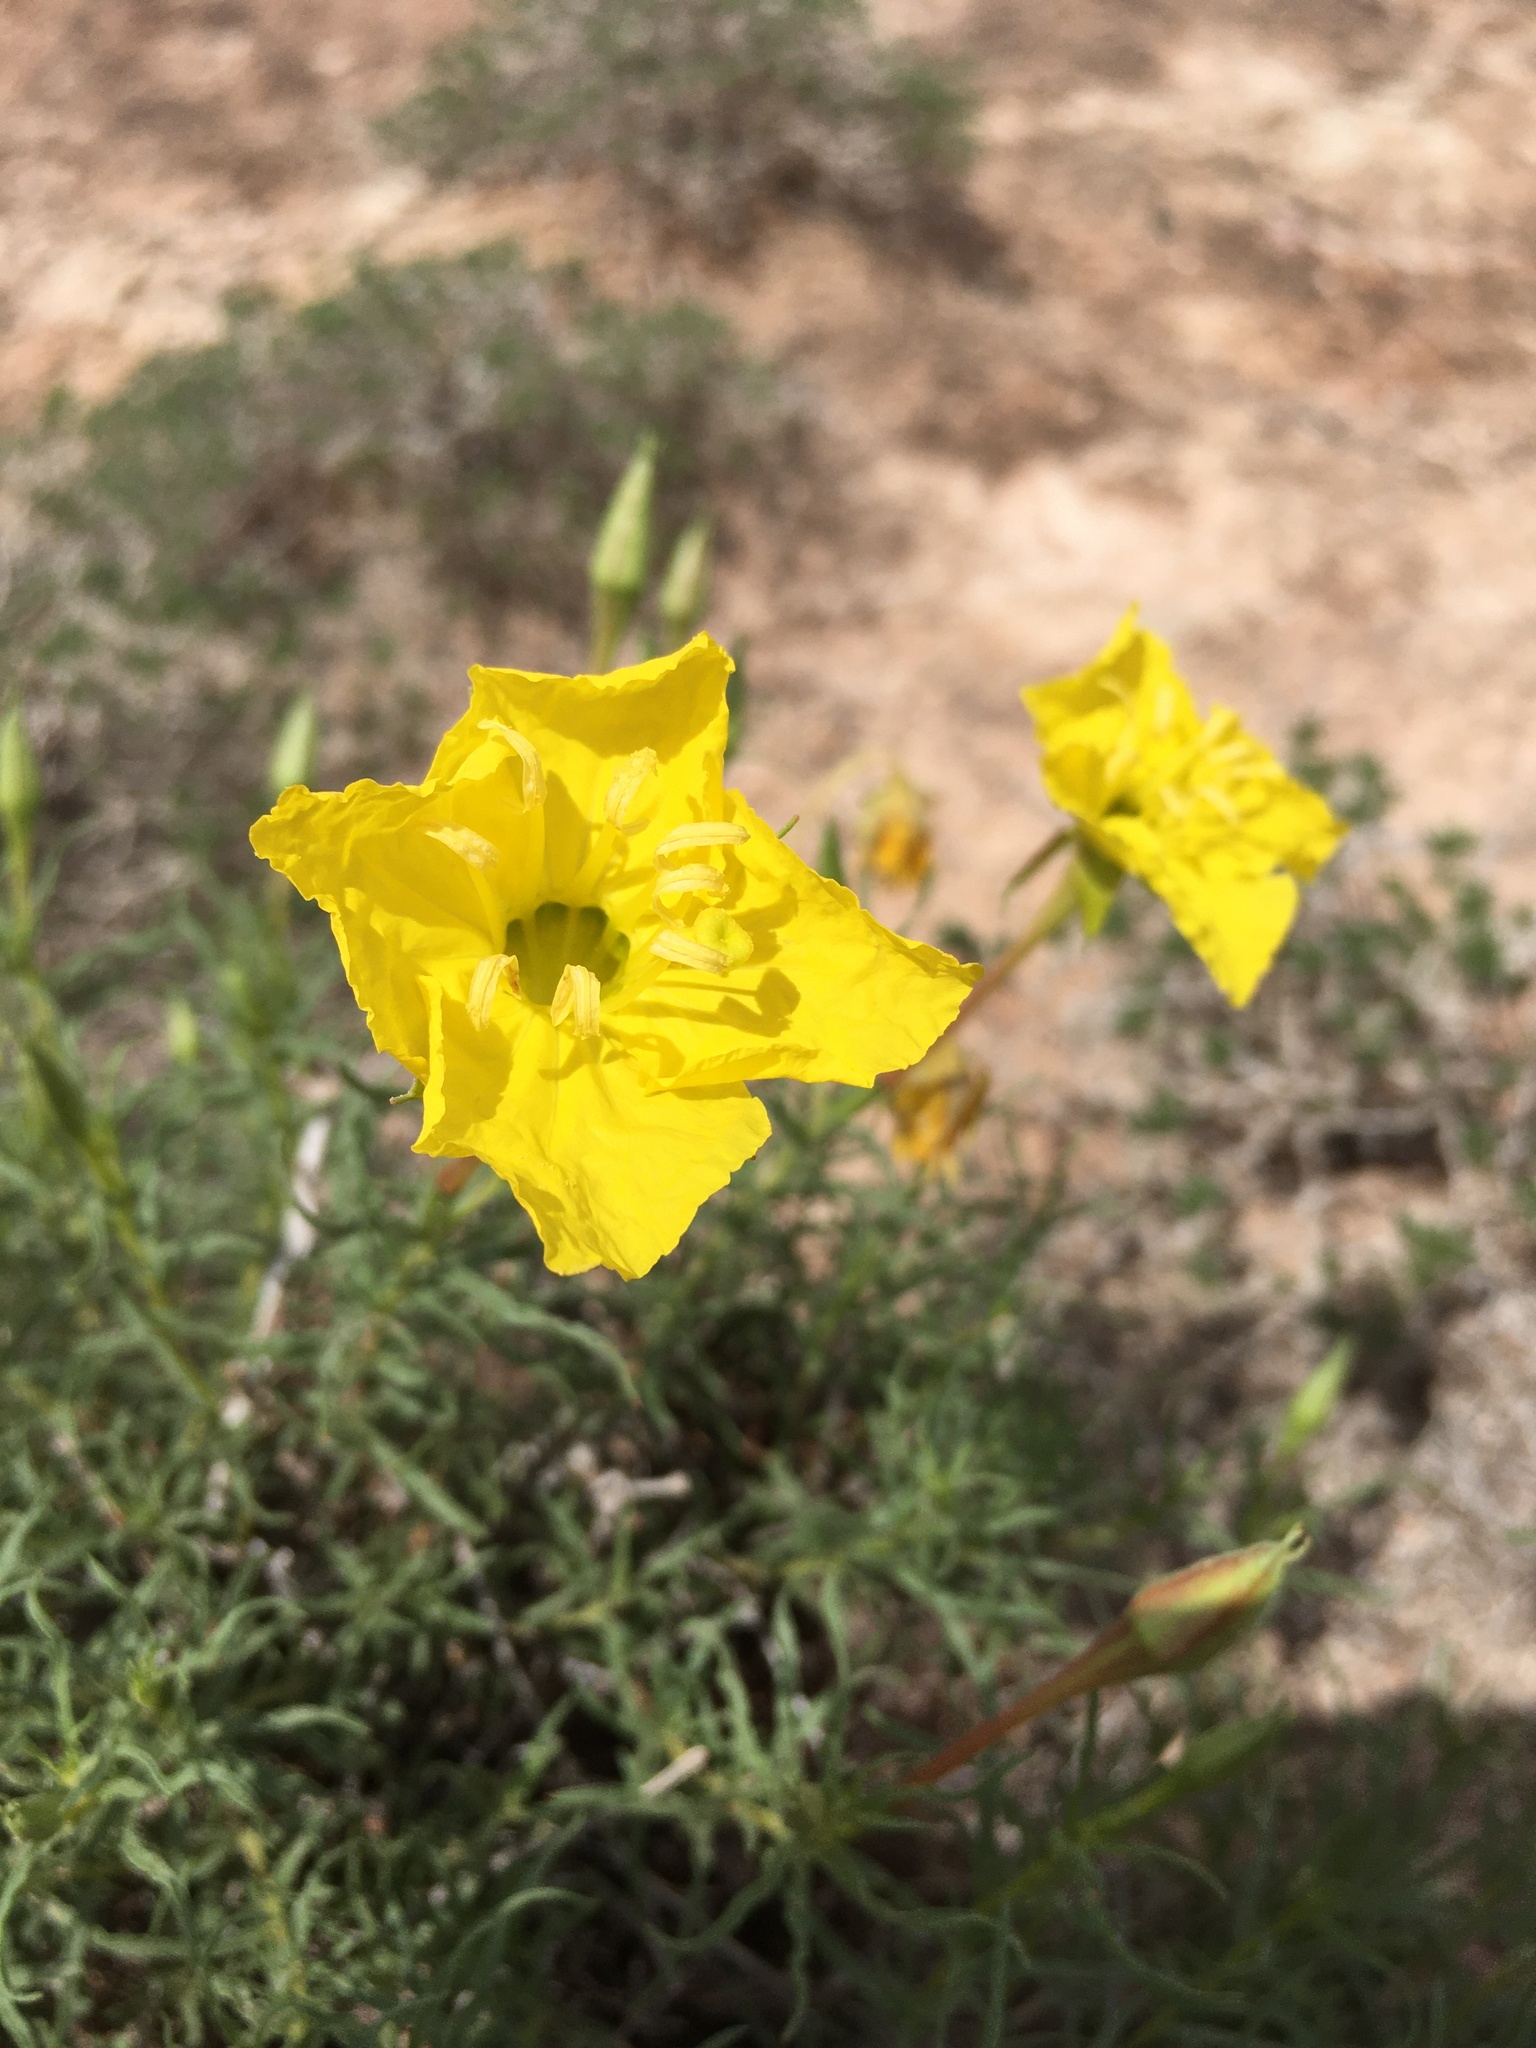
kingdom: Plantae
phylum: Tracheophyta
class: Magnoliopsida
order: Myrtales
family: Onagraceae
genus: Oenothera
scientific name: Oenothera hartwegii
